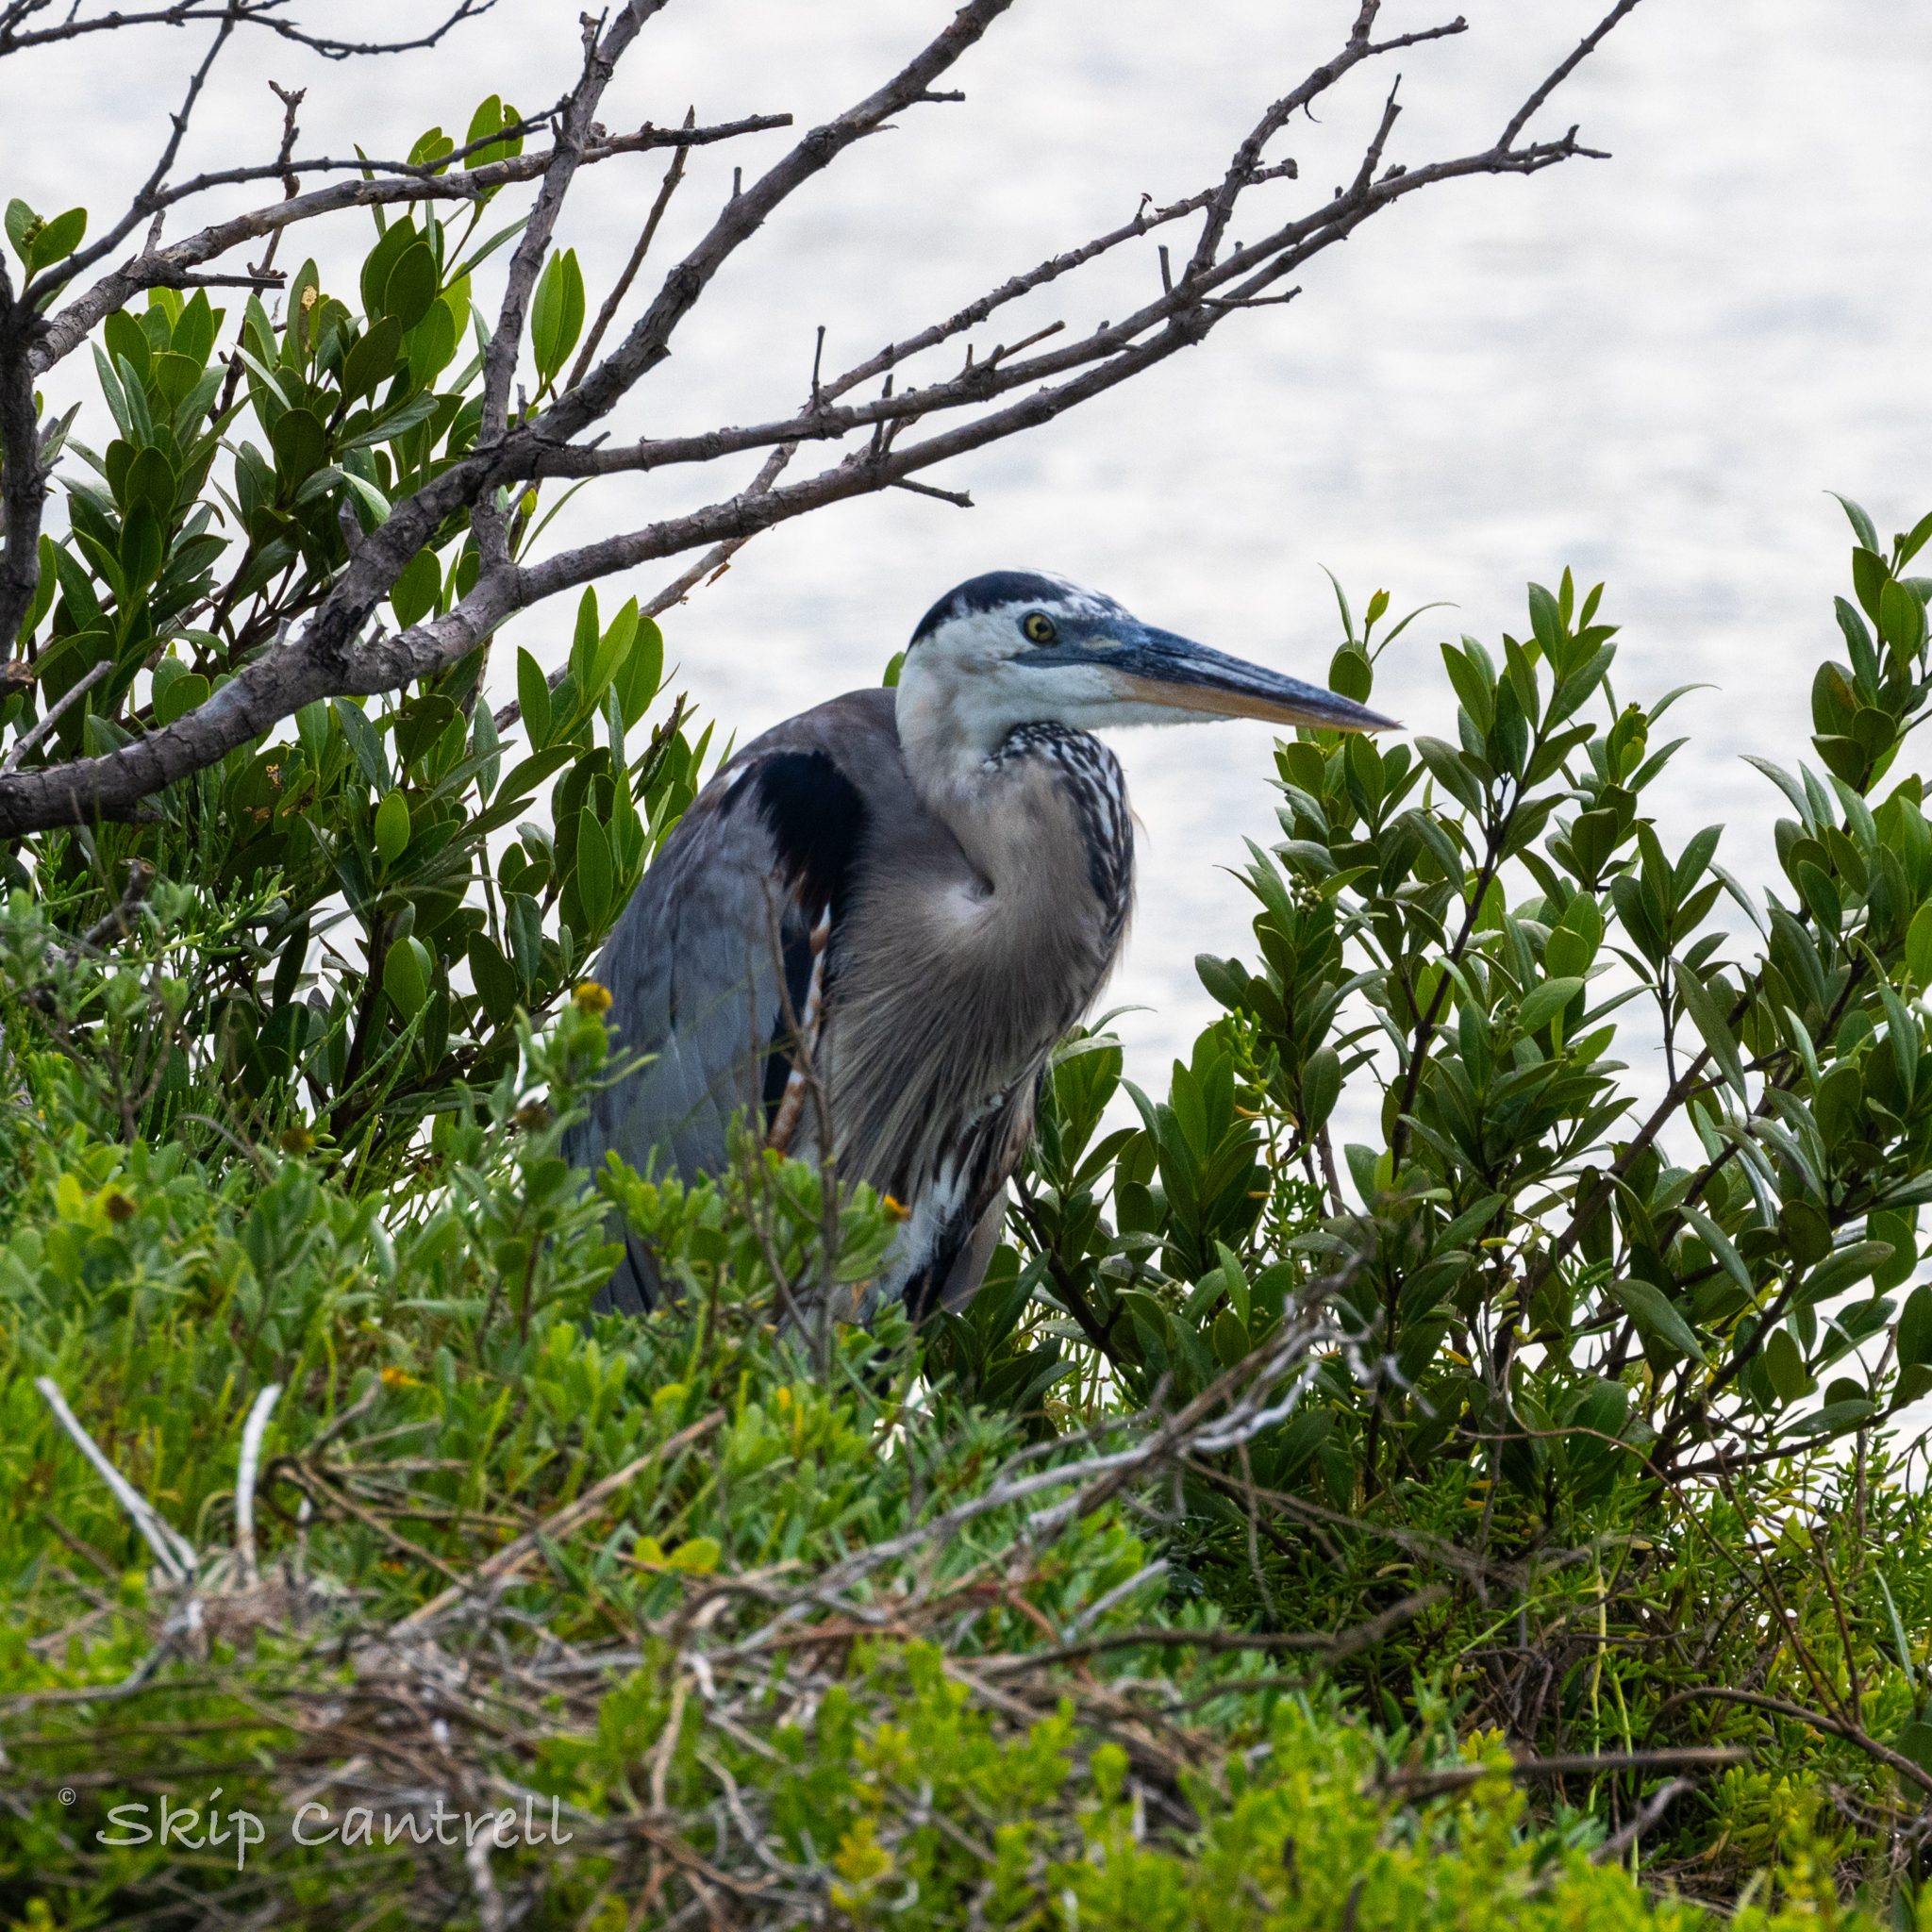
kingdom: Animalia
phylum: Chordata
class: Aves
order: Pelecaniformes
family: Ardeidae
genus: Ardea
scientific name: Ardea herodias
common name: Great blue heron
